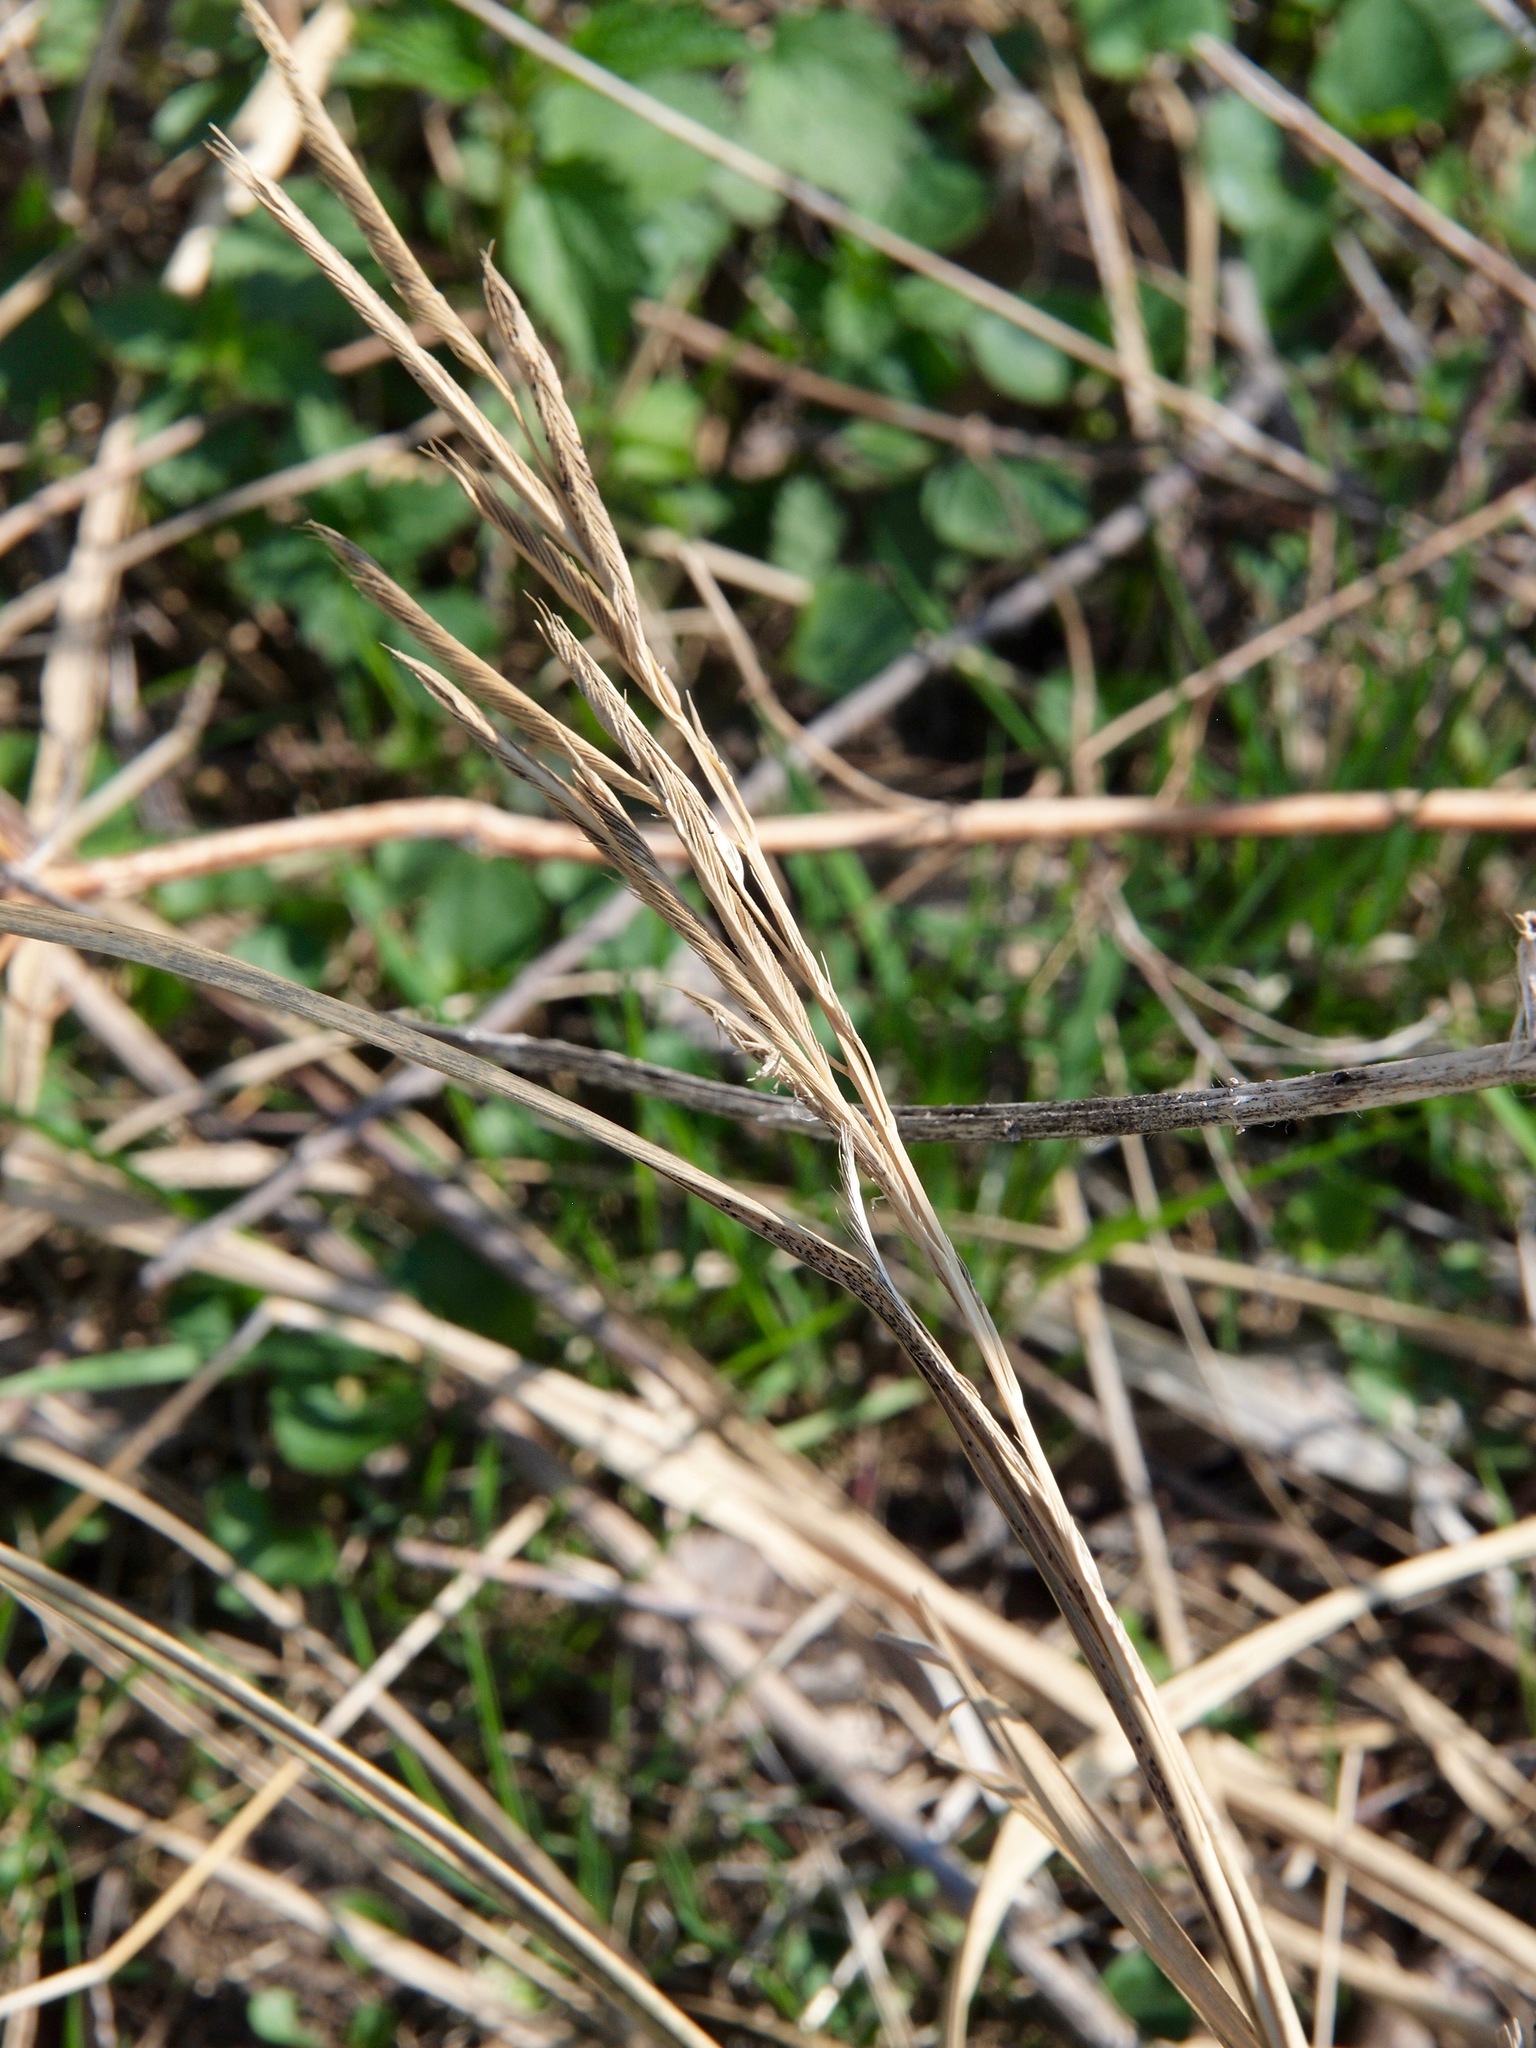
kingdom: Plantae
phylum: Tracheophyta
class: Liliopsida
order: Poales
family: Poaceae
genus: Sporobolus
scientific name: Sporobolus michauxianus
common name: Freshwater cordgrass
